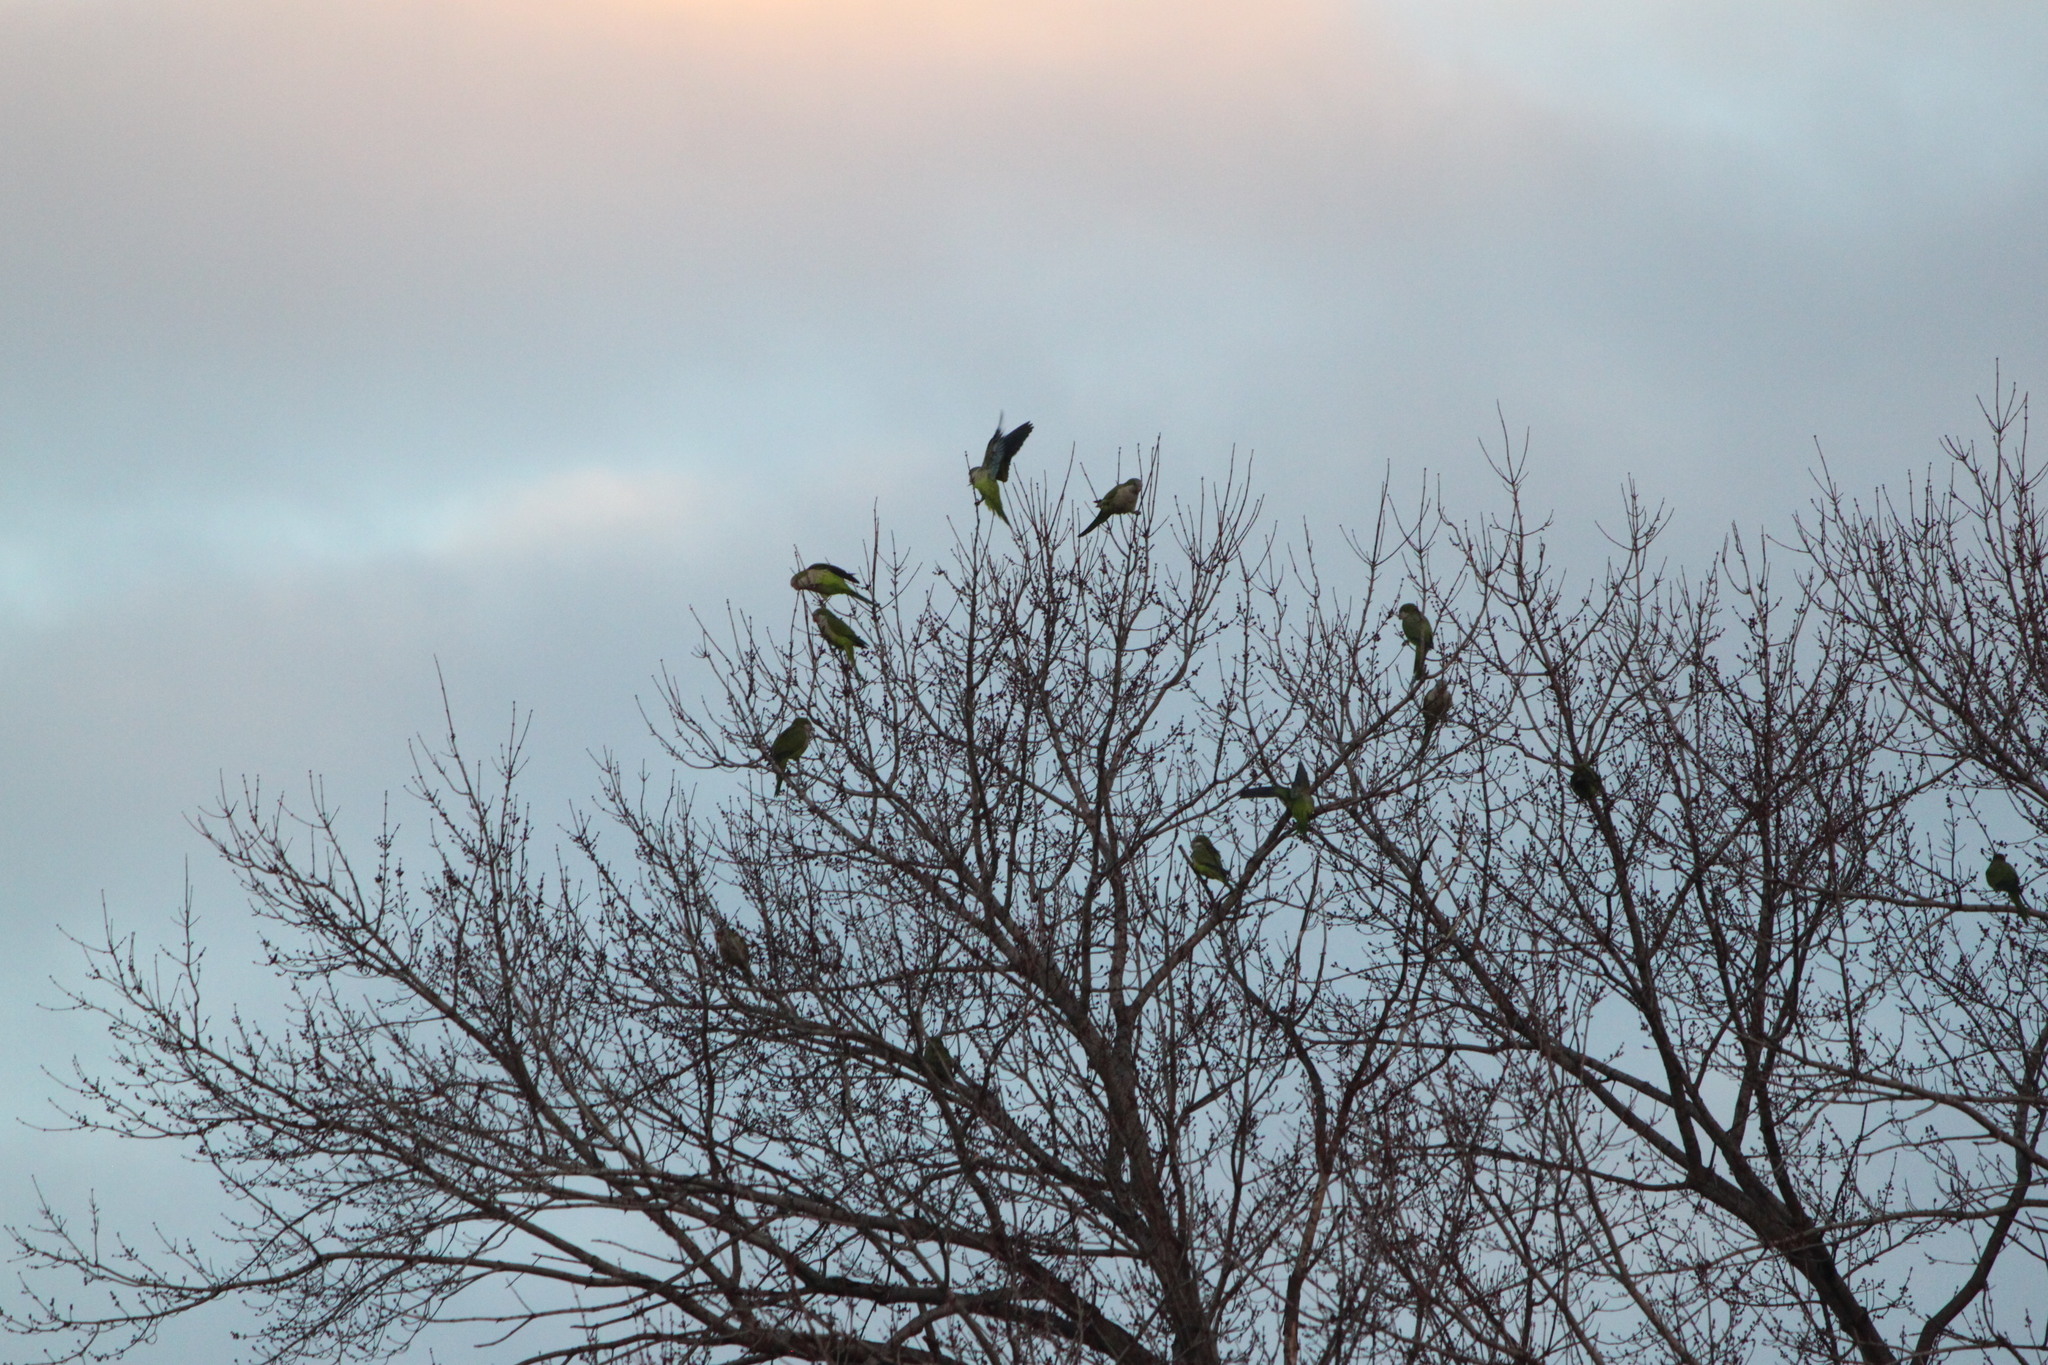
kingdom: Animalia
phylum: Chordata
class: Aves
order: Psittaciformes
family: Psittacidae
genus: Myiopsitta
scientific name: Myiopsitta monachus
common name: Monk parakeet
